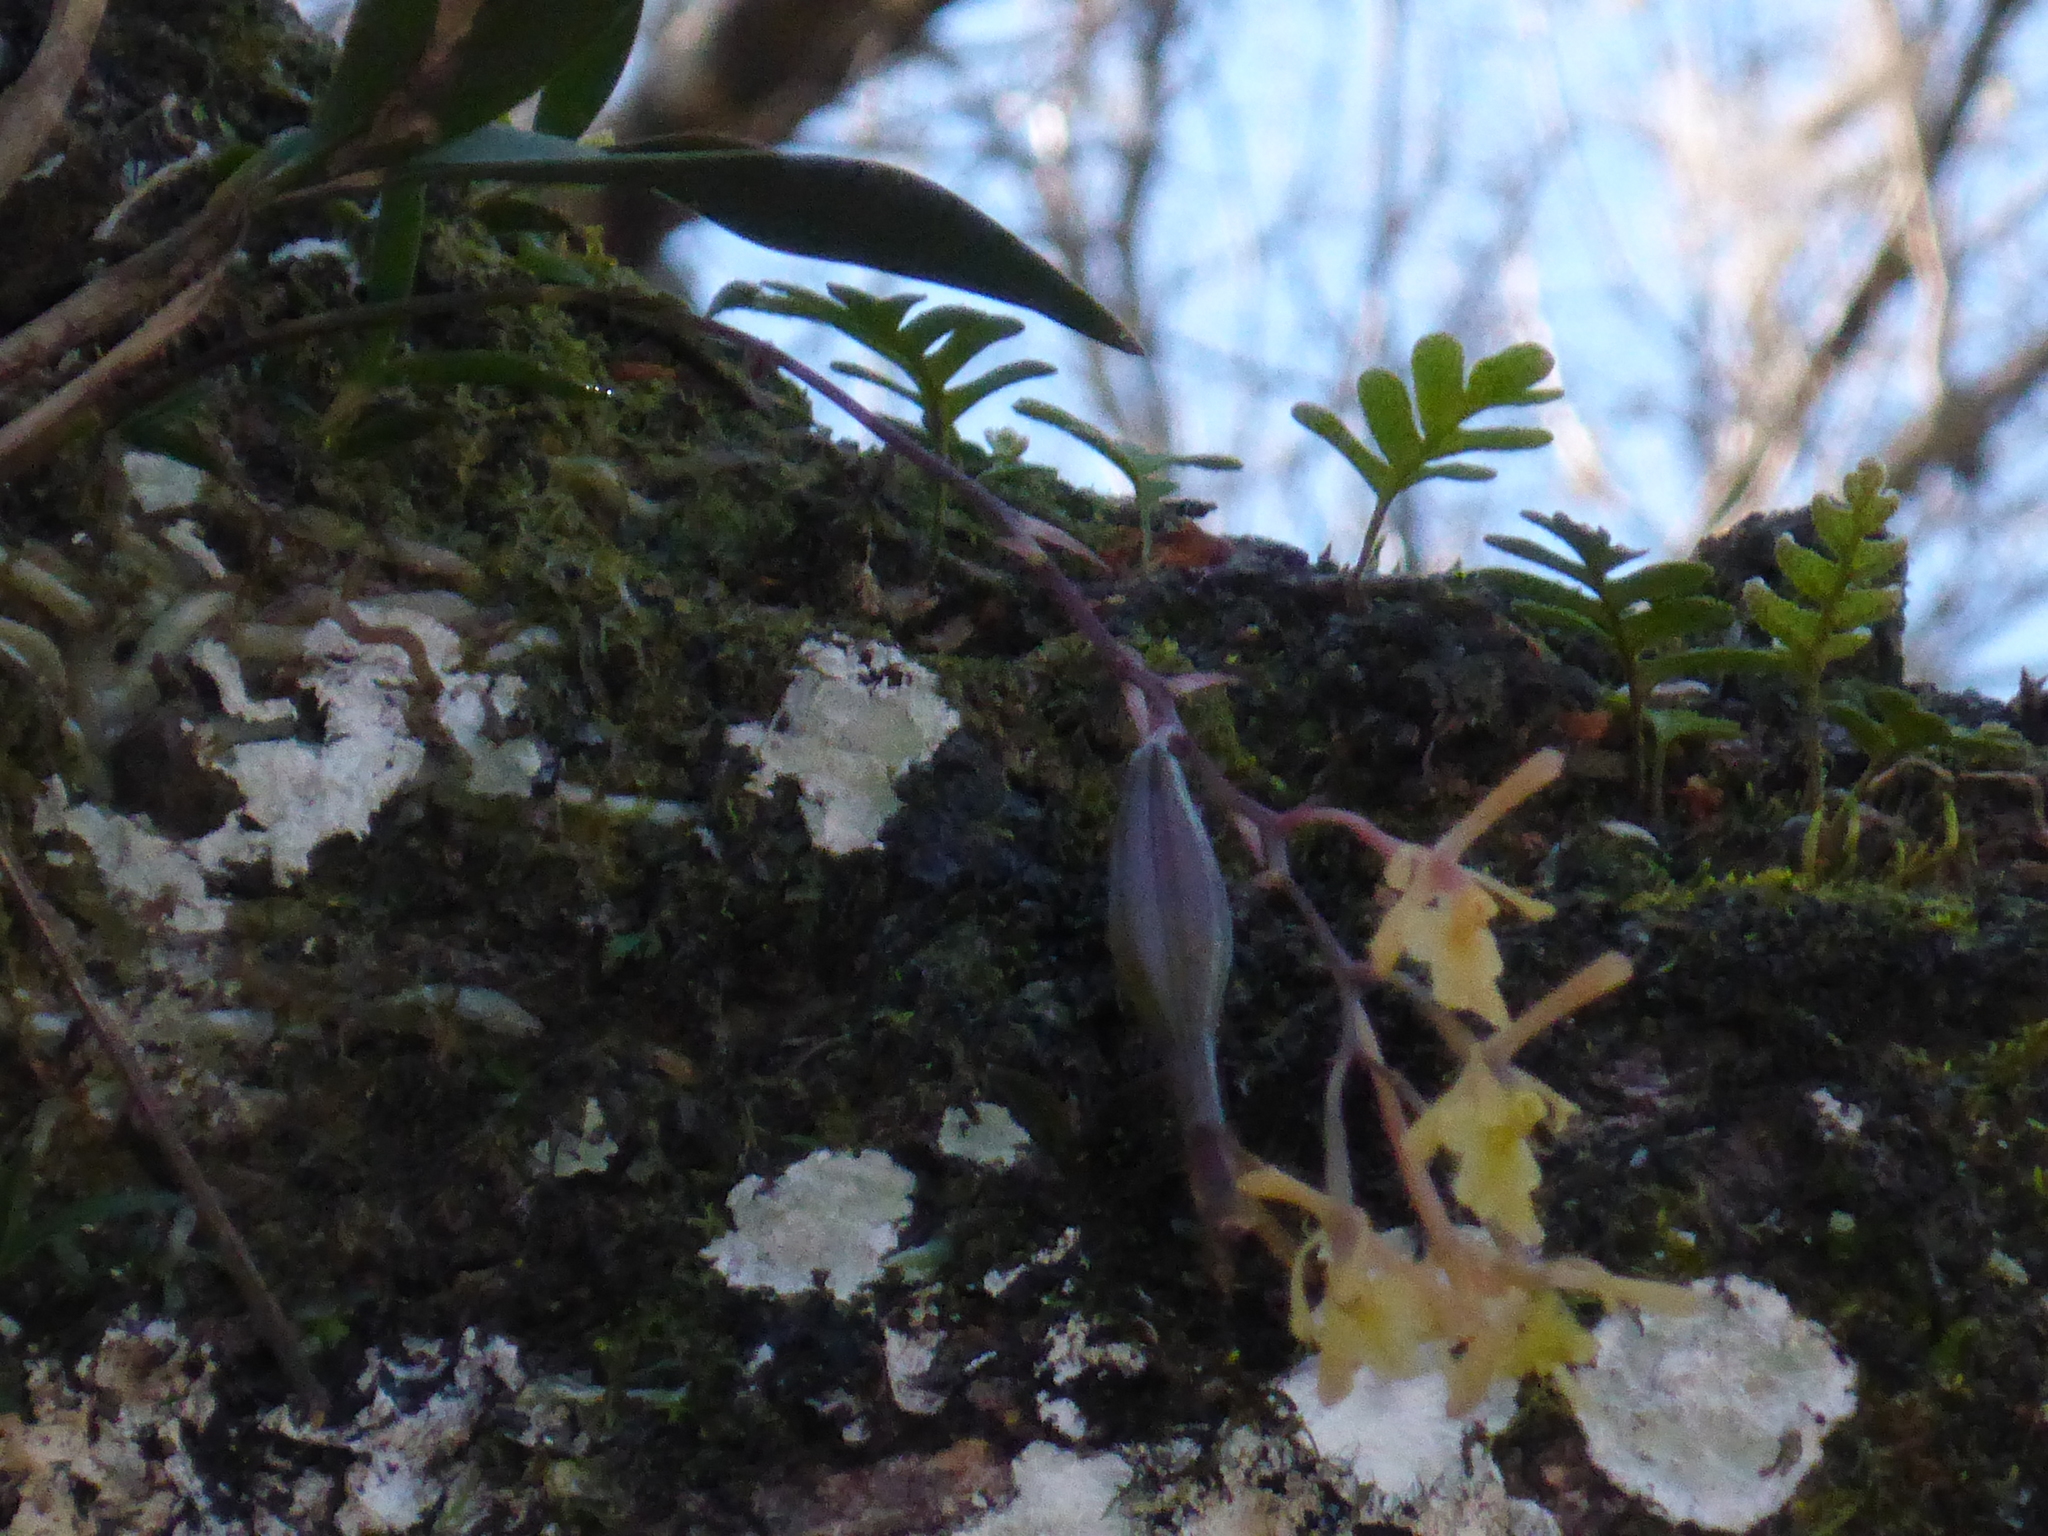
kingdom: Plantae
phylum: Tracheophyta
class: Liliopsida
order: Asparagales
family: Orchidaceae
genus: Epidendrum
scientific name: Epidendrum conopseum
